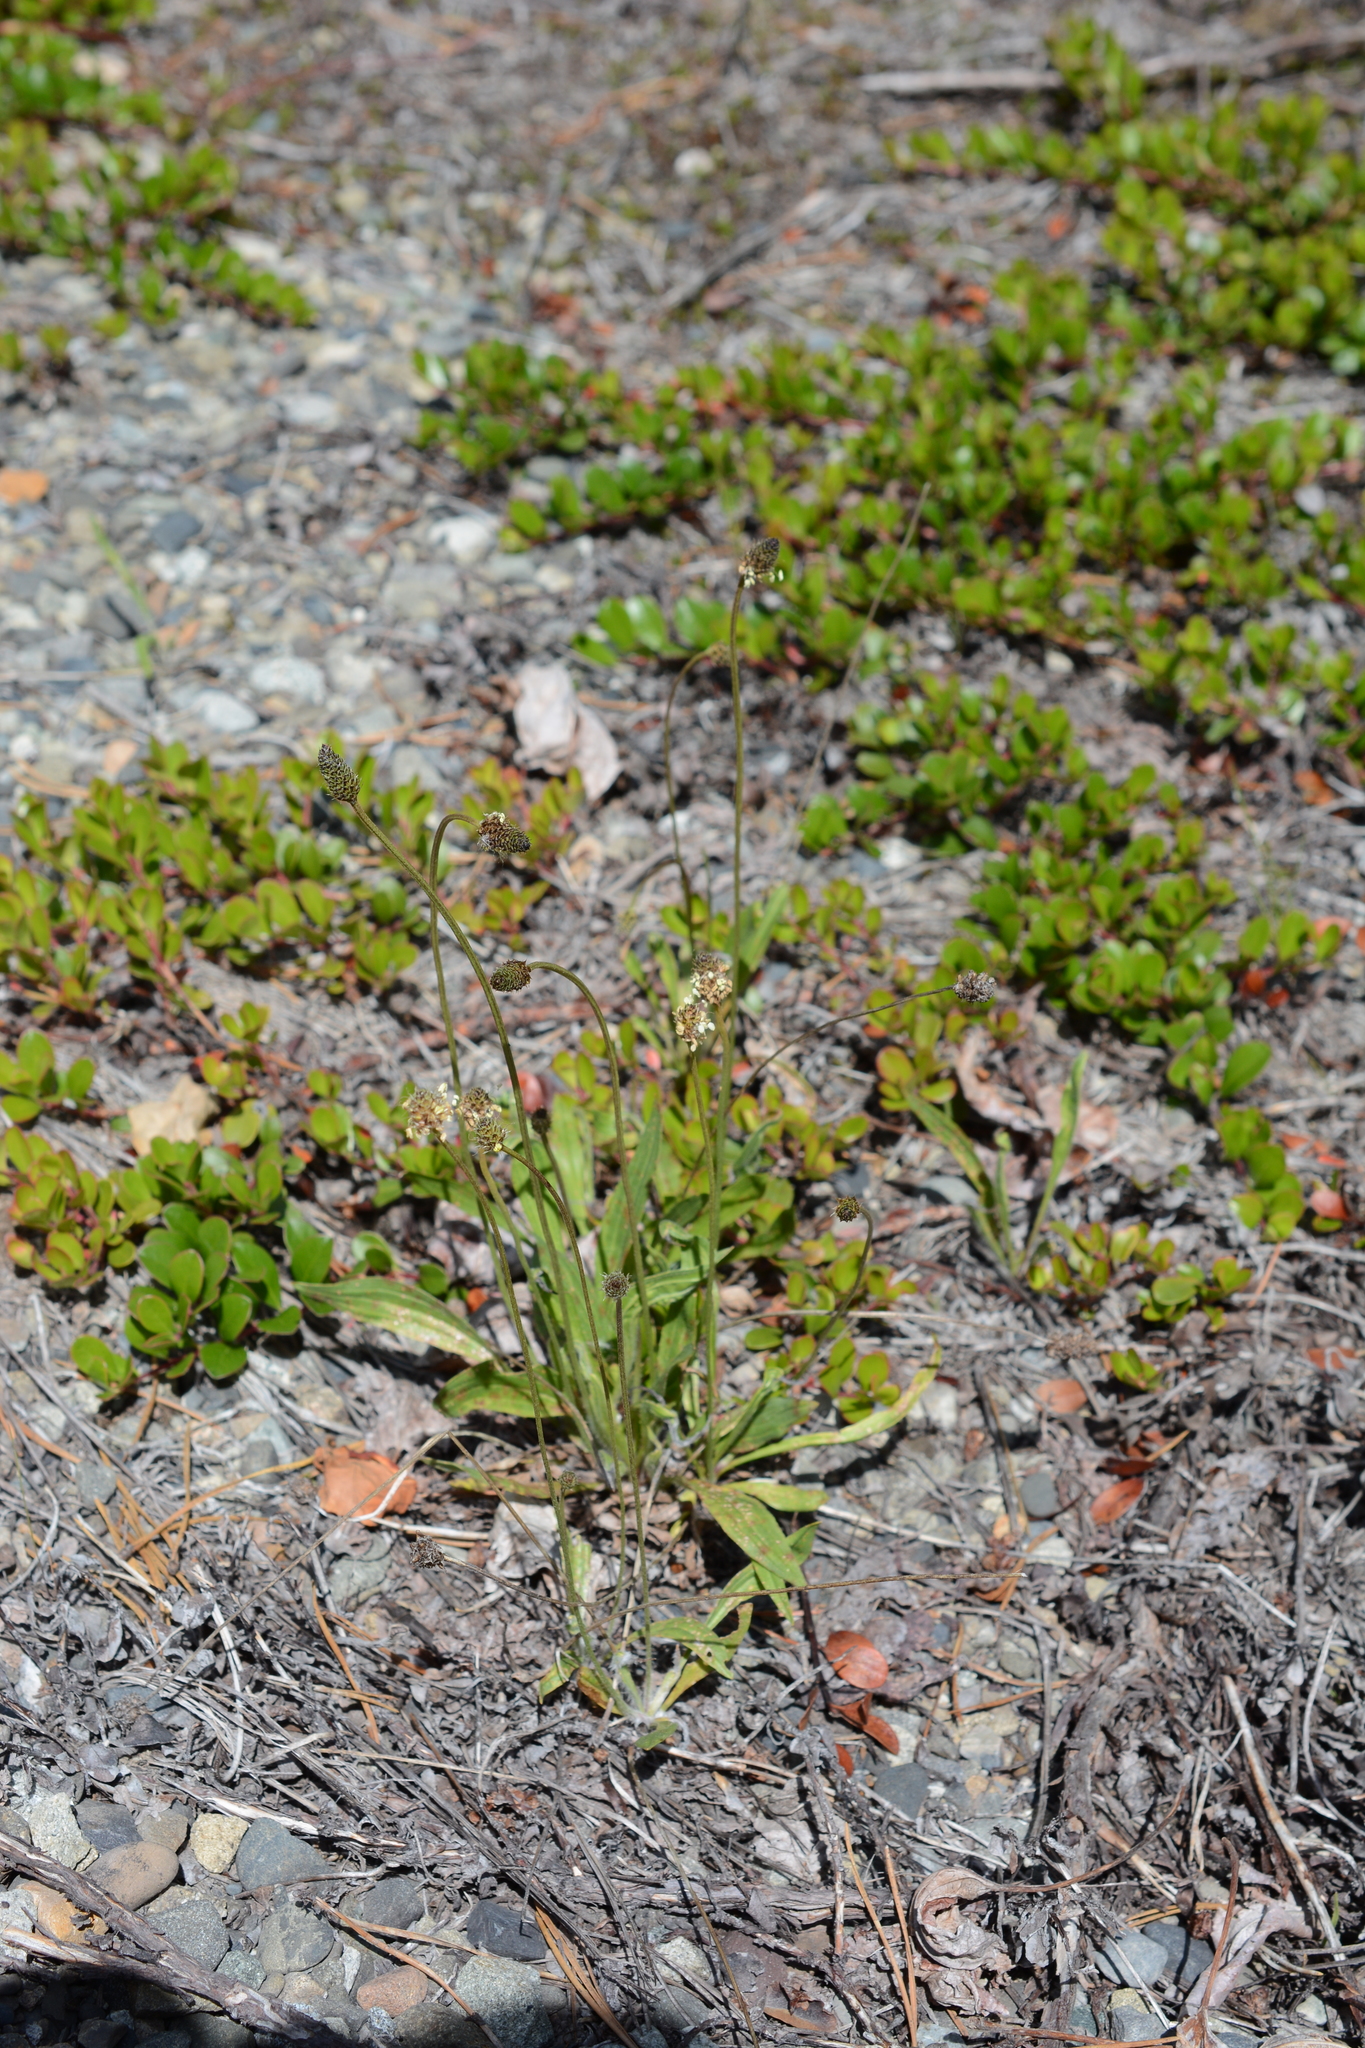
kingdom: Plantae
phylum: Tracheophyta
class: Magnoliopsida
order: Lamiales
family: Plantaginaceae
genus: Plantago
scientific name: Plantago lanceolata
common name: Ribwort plantain
